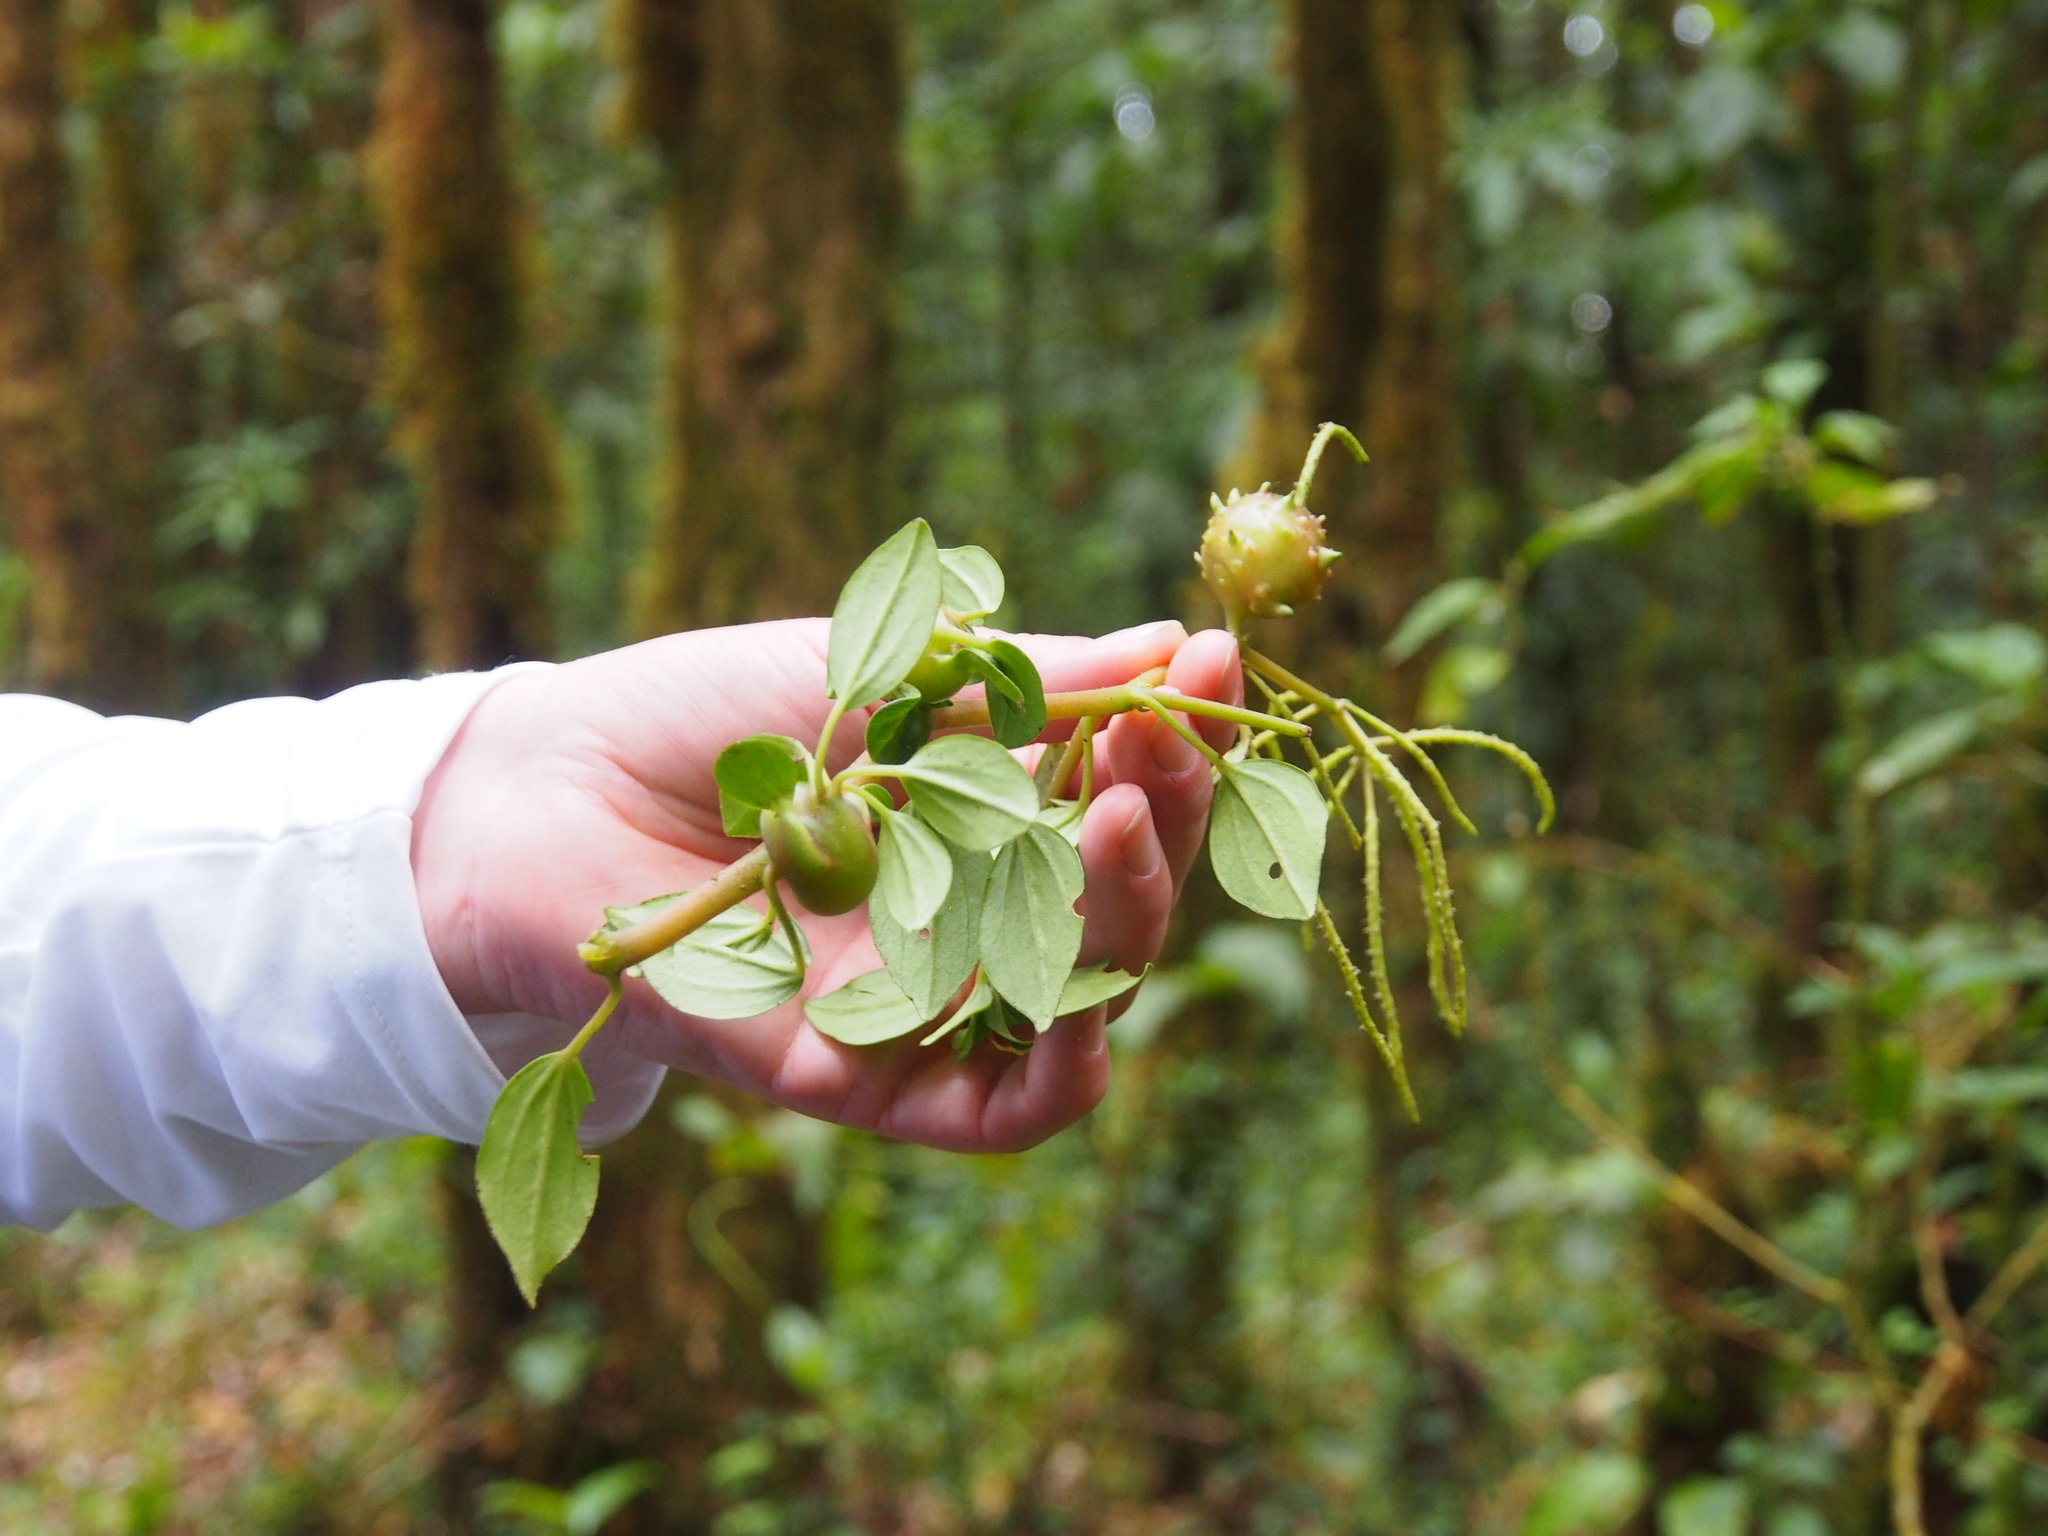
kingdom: Plantae
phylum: Tracheophyta
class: Magnoliopsida
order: Piperales
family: Piperaceae
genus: Peperomia
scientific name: Peperomia esperanzana
